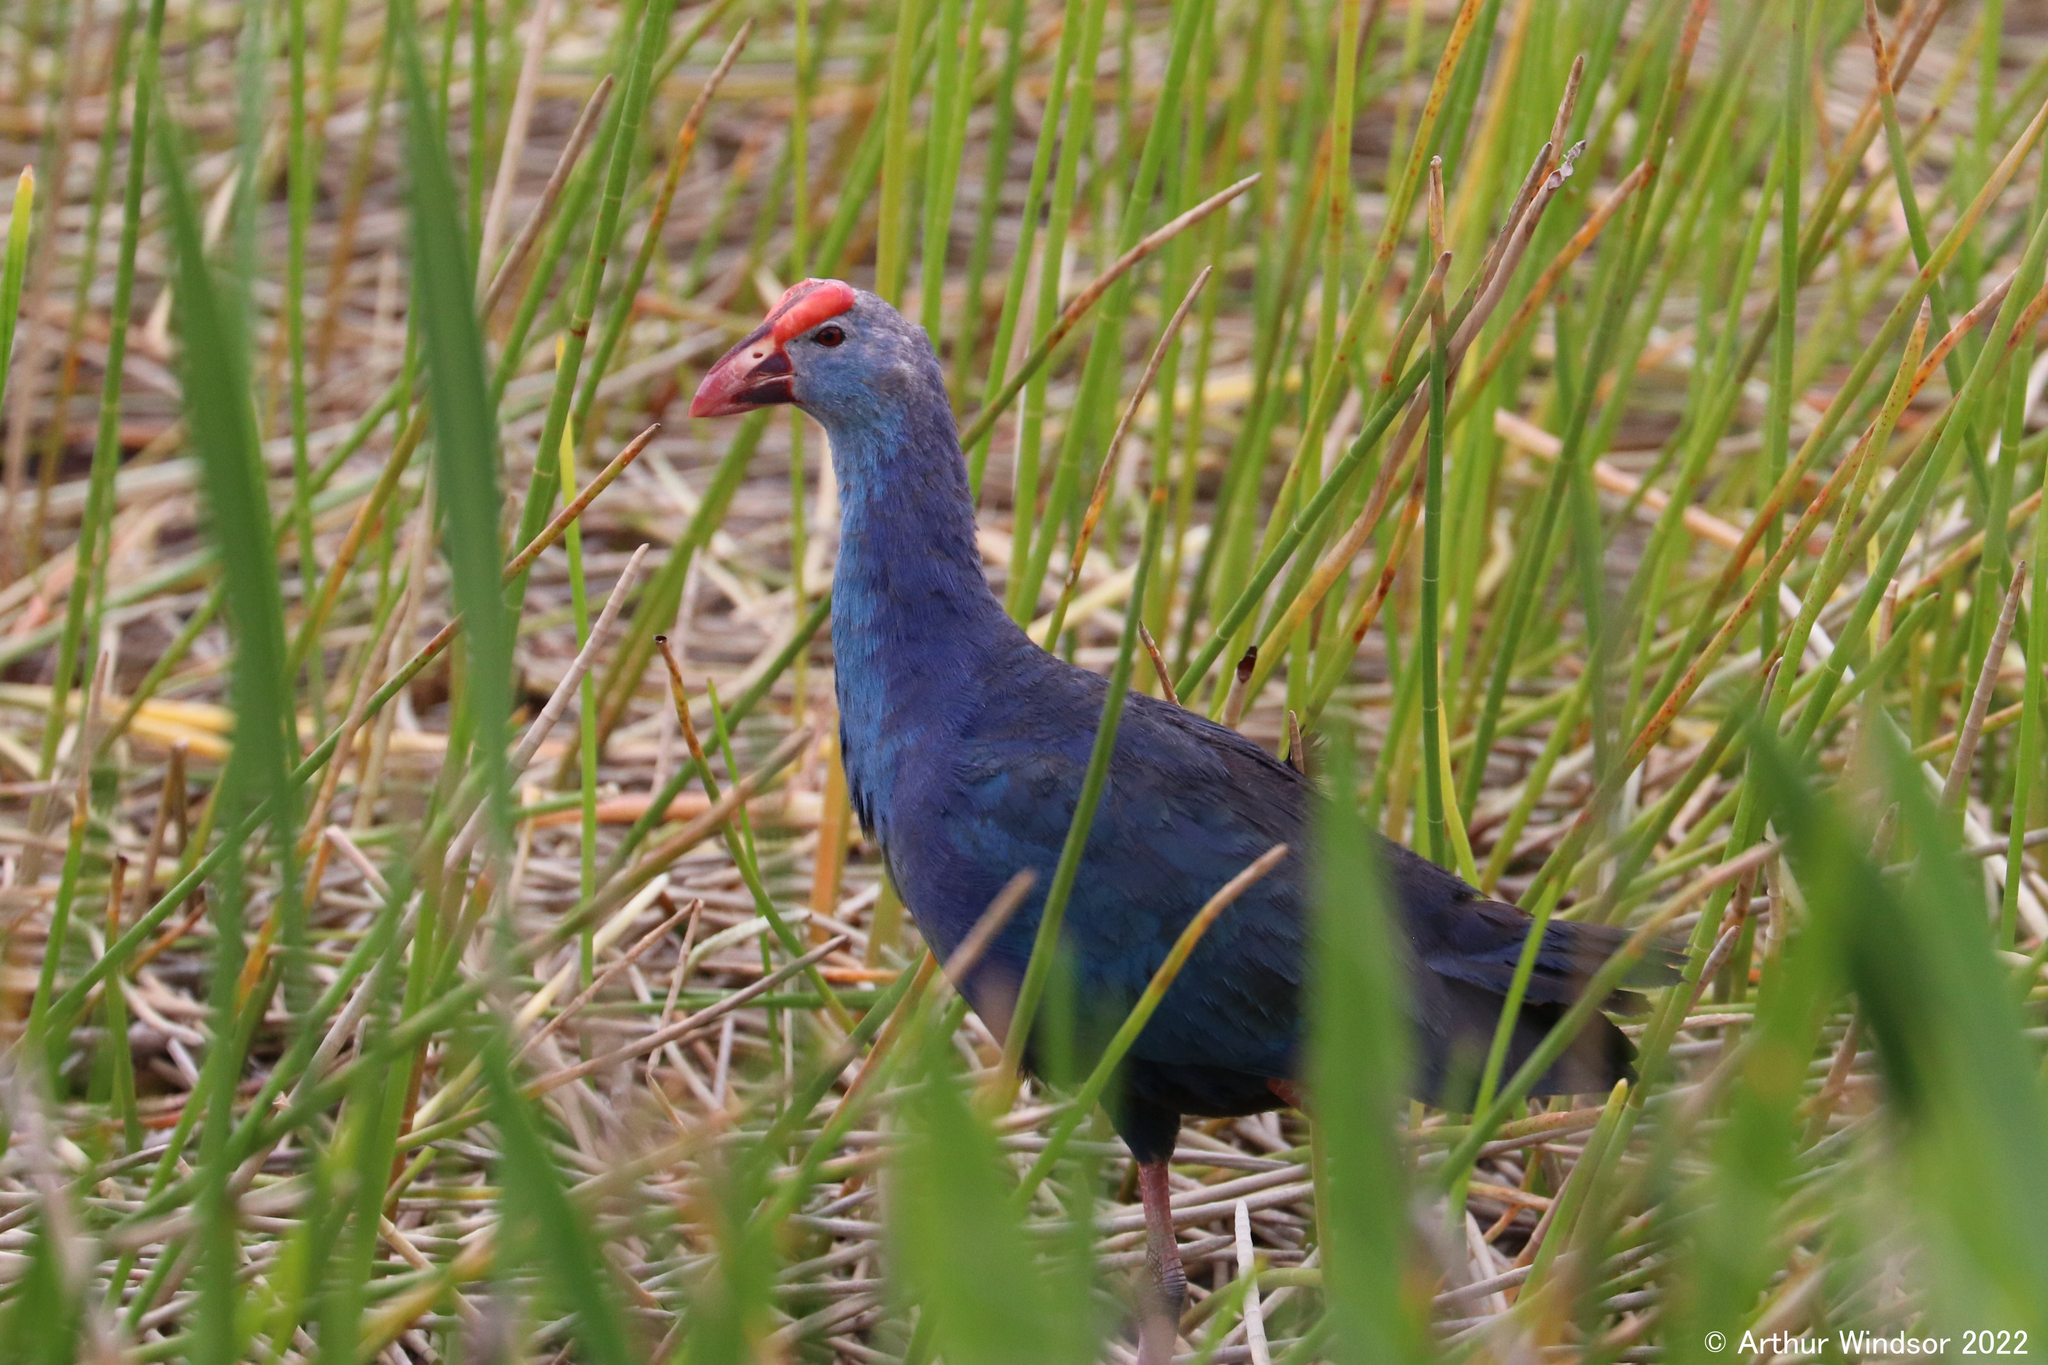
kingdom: Animalia
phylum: Chordata
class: Aves
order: Gruiformes
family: Rallidae
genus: Porphyrio
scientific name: Porphyrio porphyrio
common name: Purple swamphen
